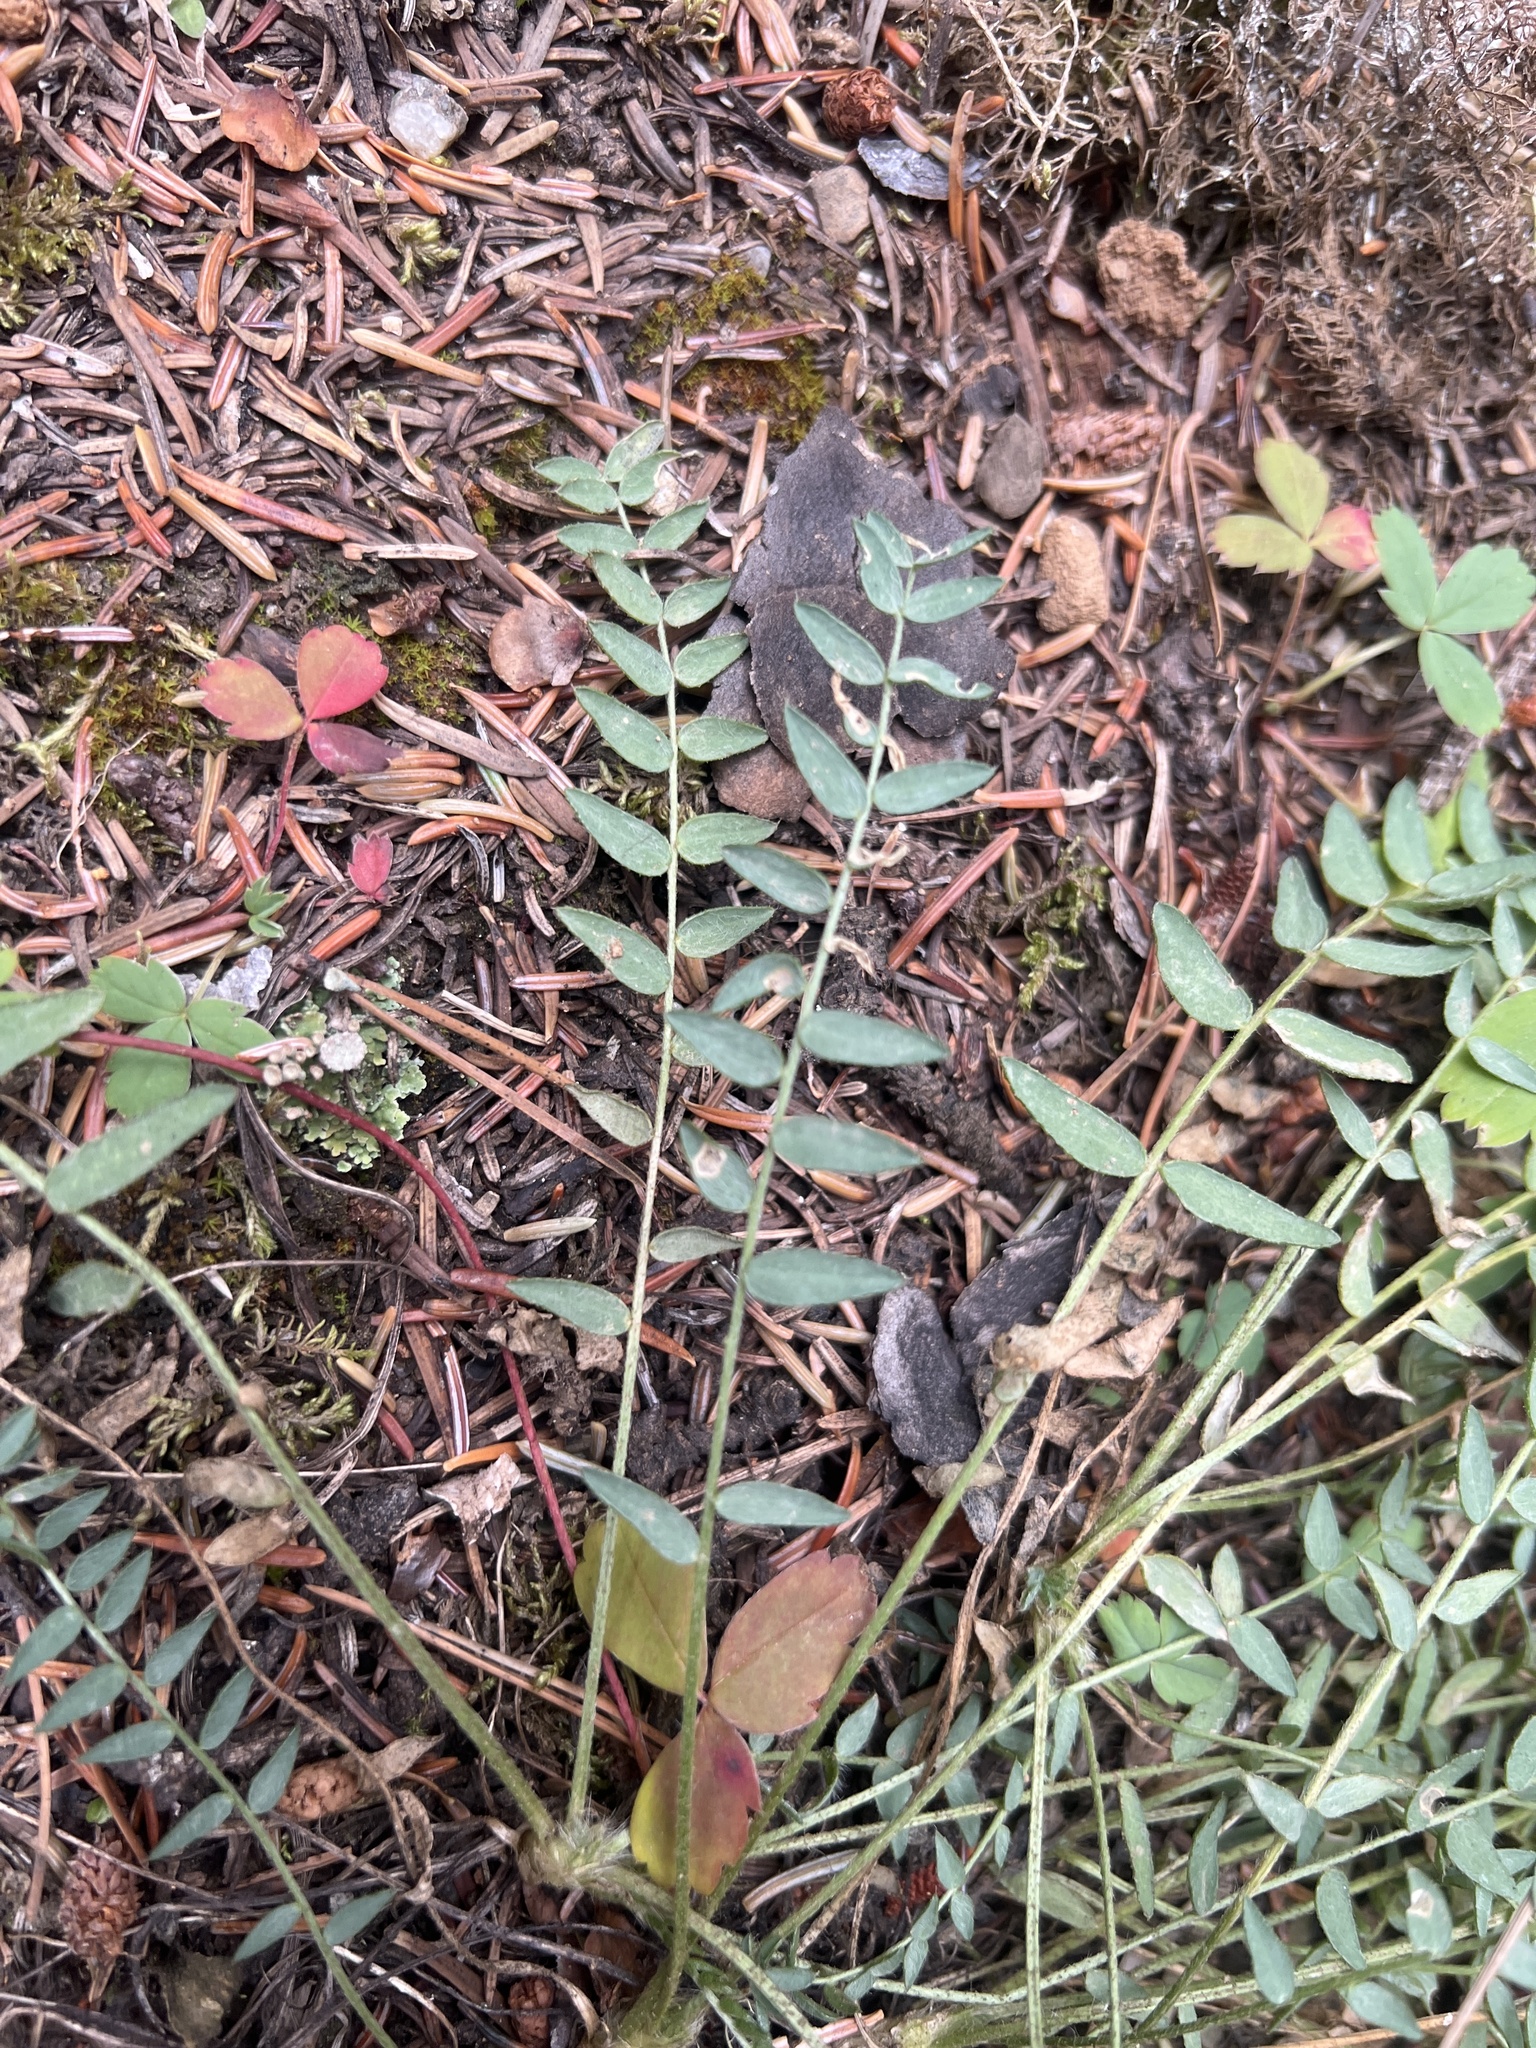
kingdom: Plantae
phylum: Tracheophyta
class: Magnoliopsida
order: Fabales
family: Fabaceae
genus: Oxytropis
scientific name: Oxytropis campestris
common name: Field locoweed
